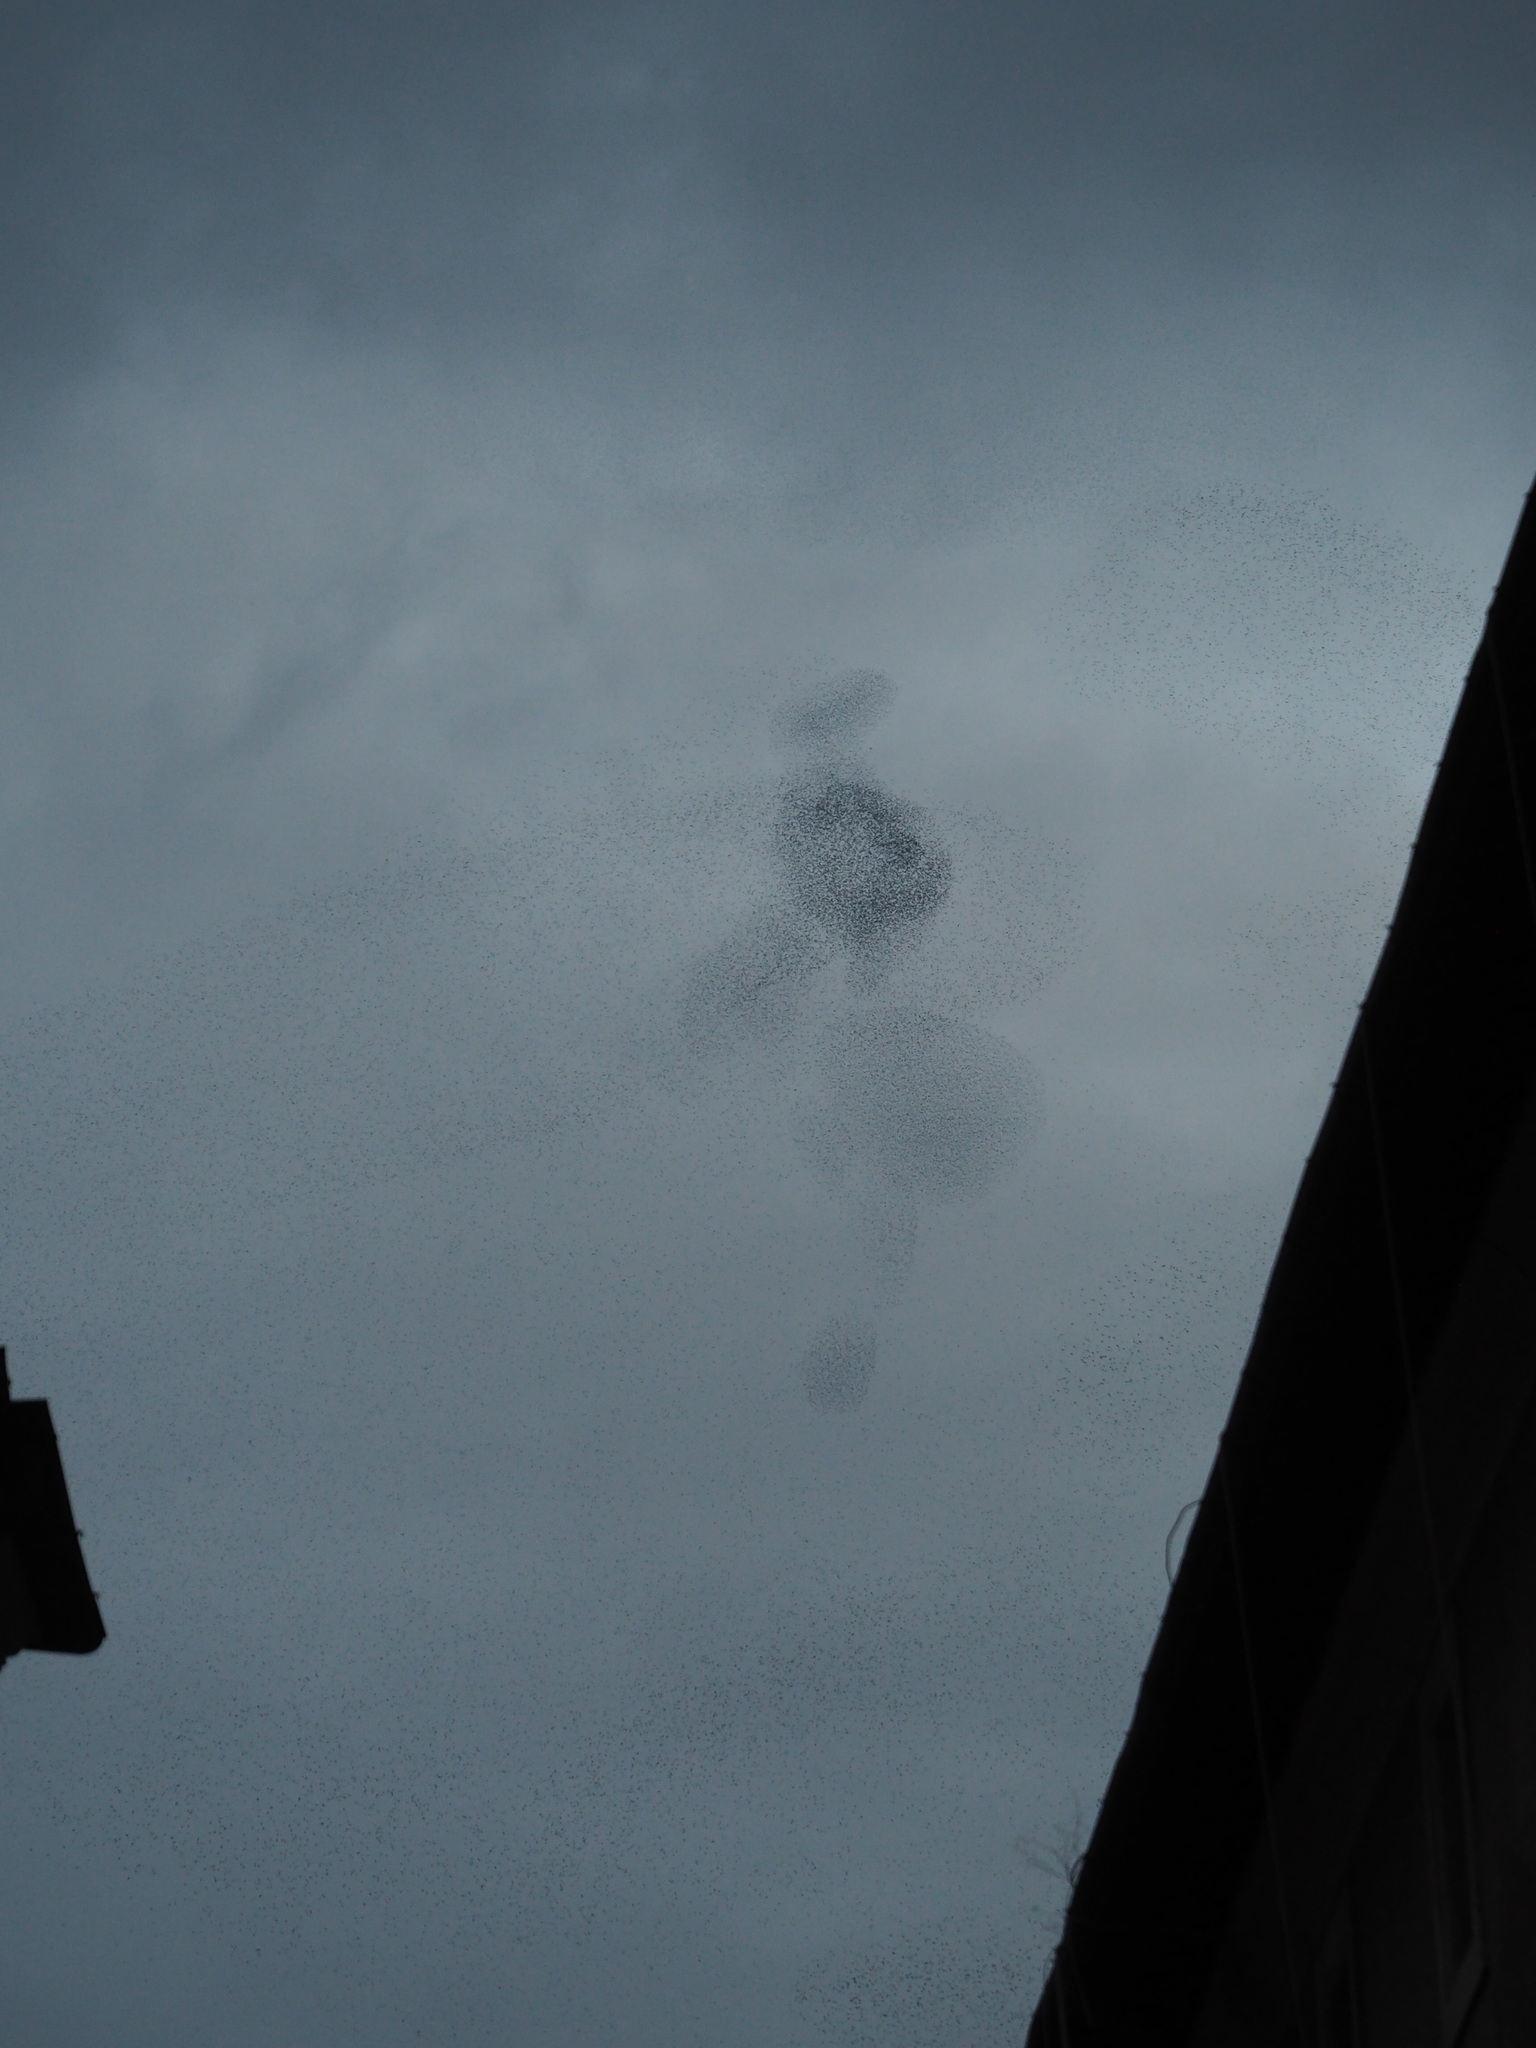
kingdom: Animalia
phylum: Chordata
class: Aves
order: Passeriformes
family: Sturnidae
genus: Sturnus
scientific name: Sturnus vulgaris
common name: Common starling
